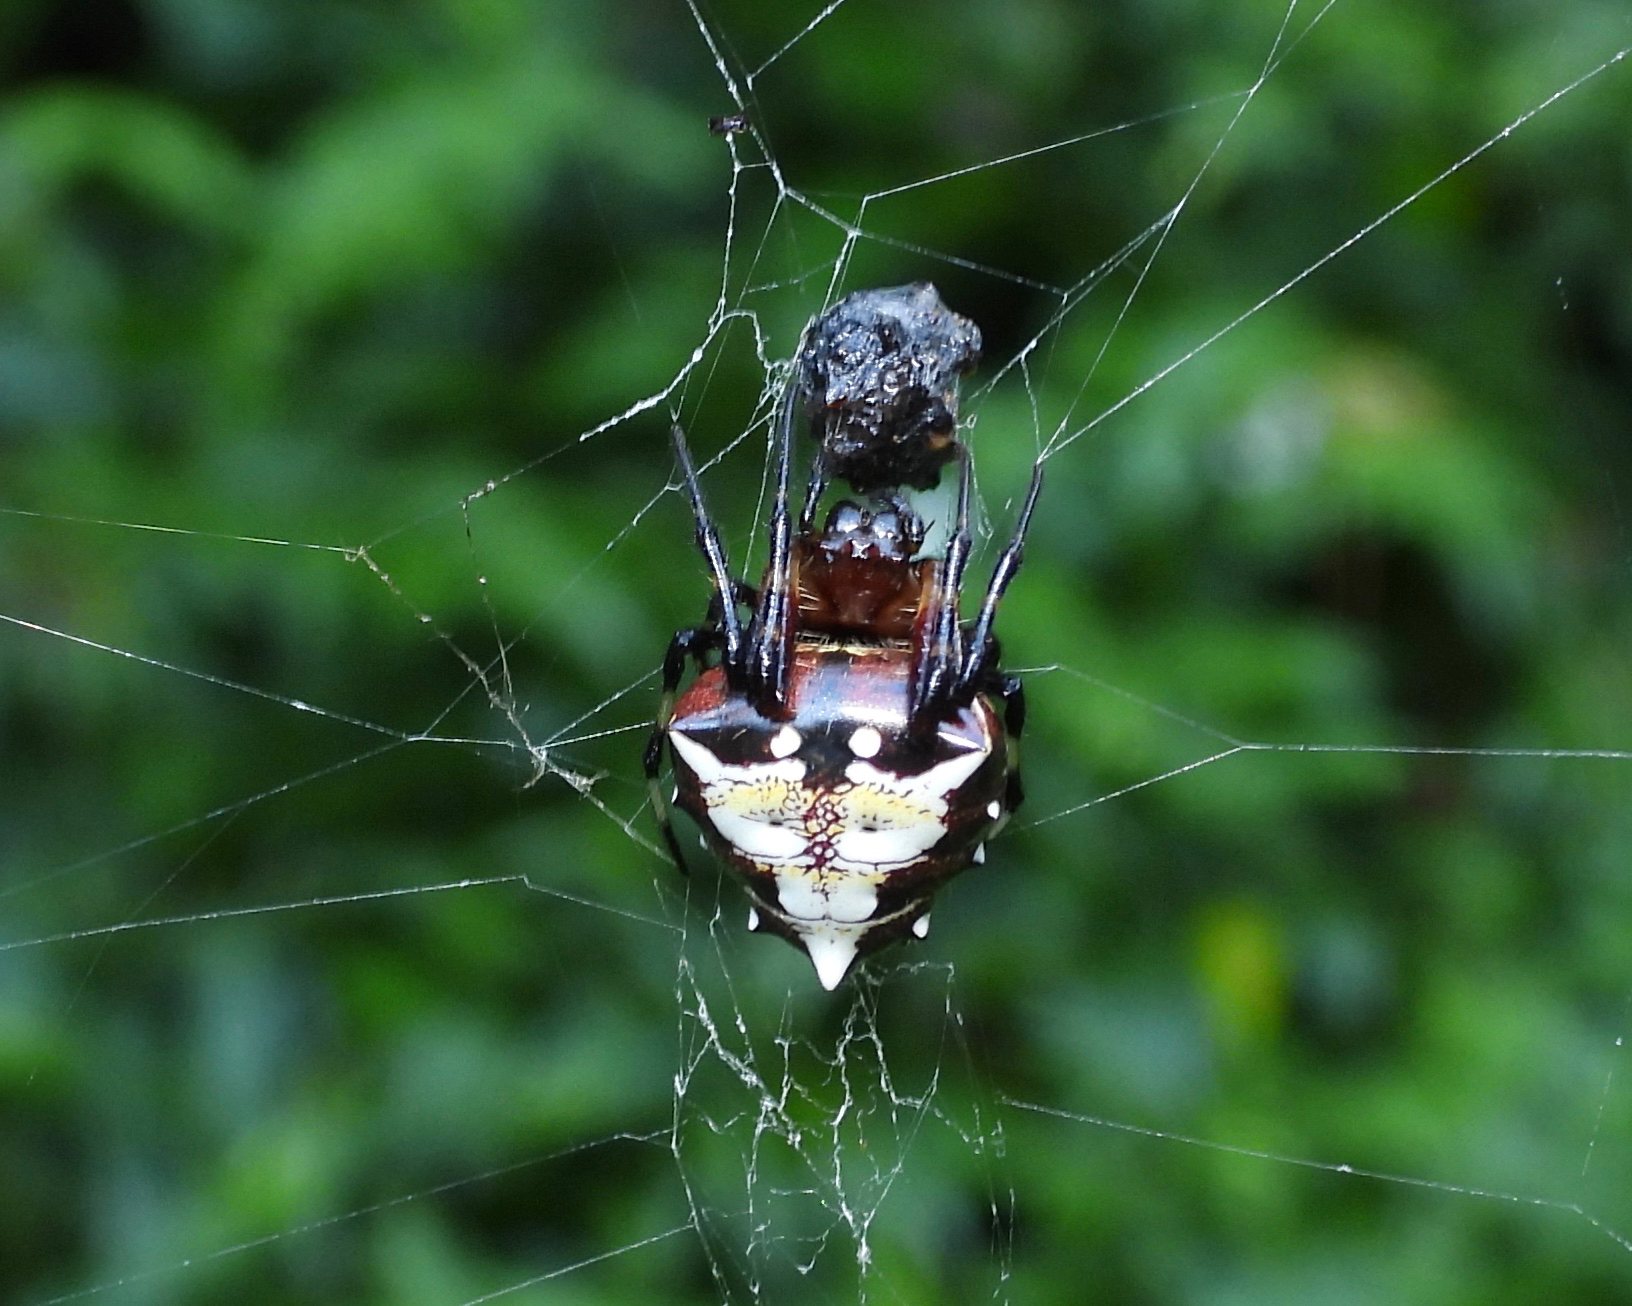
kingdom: Animalia
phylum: Arthropoda
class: Arachnida
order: Araneae
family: Araneidae
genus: Verrucosa
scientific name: Verrucosa arenata
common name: Orb weavers
